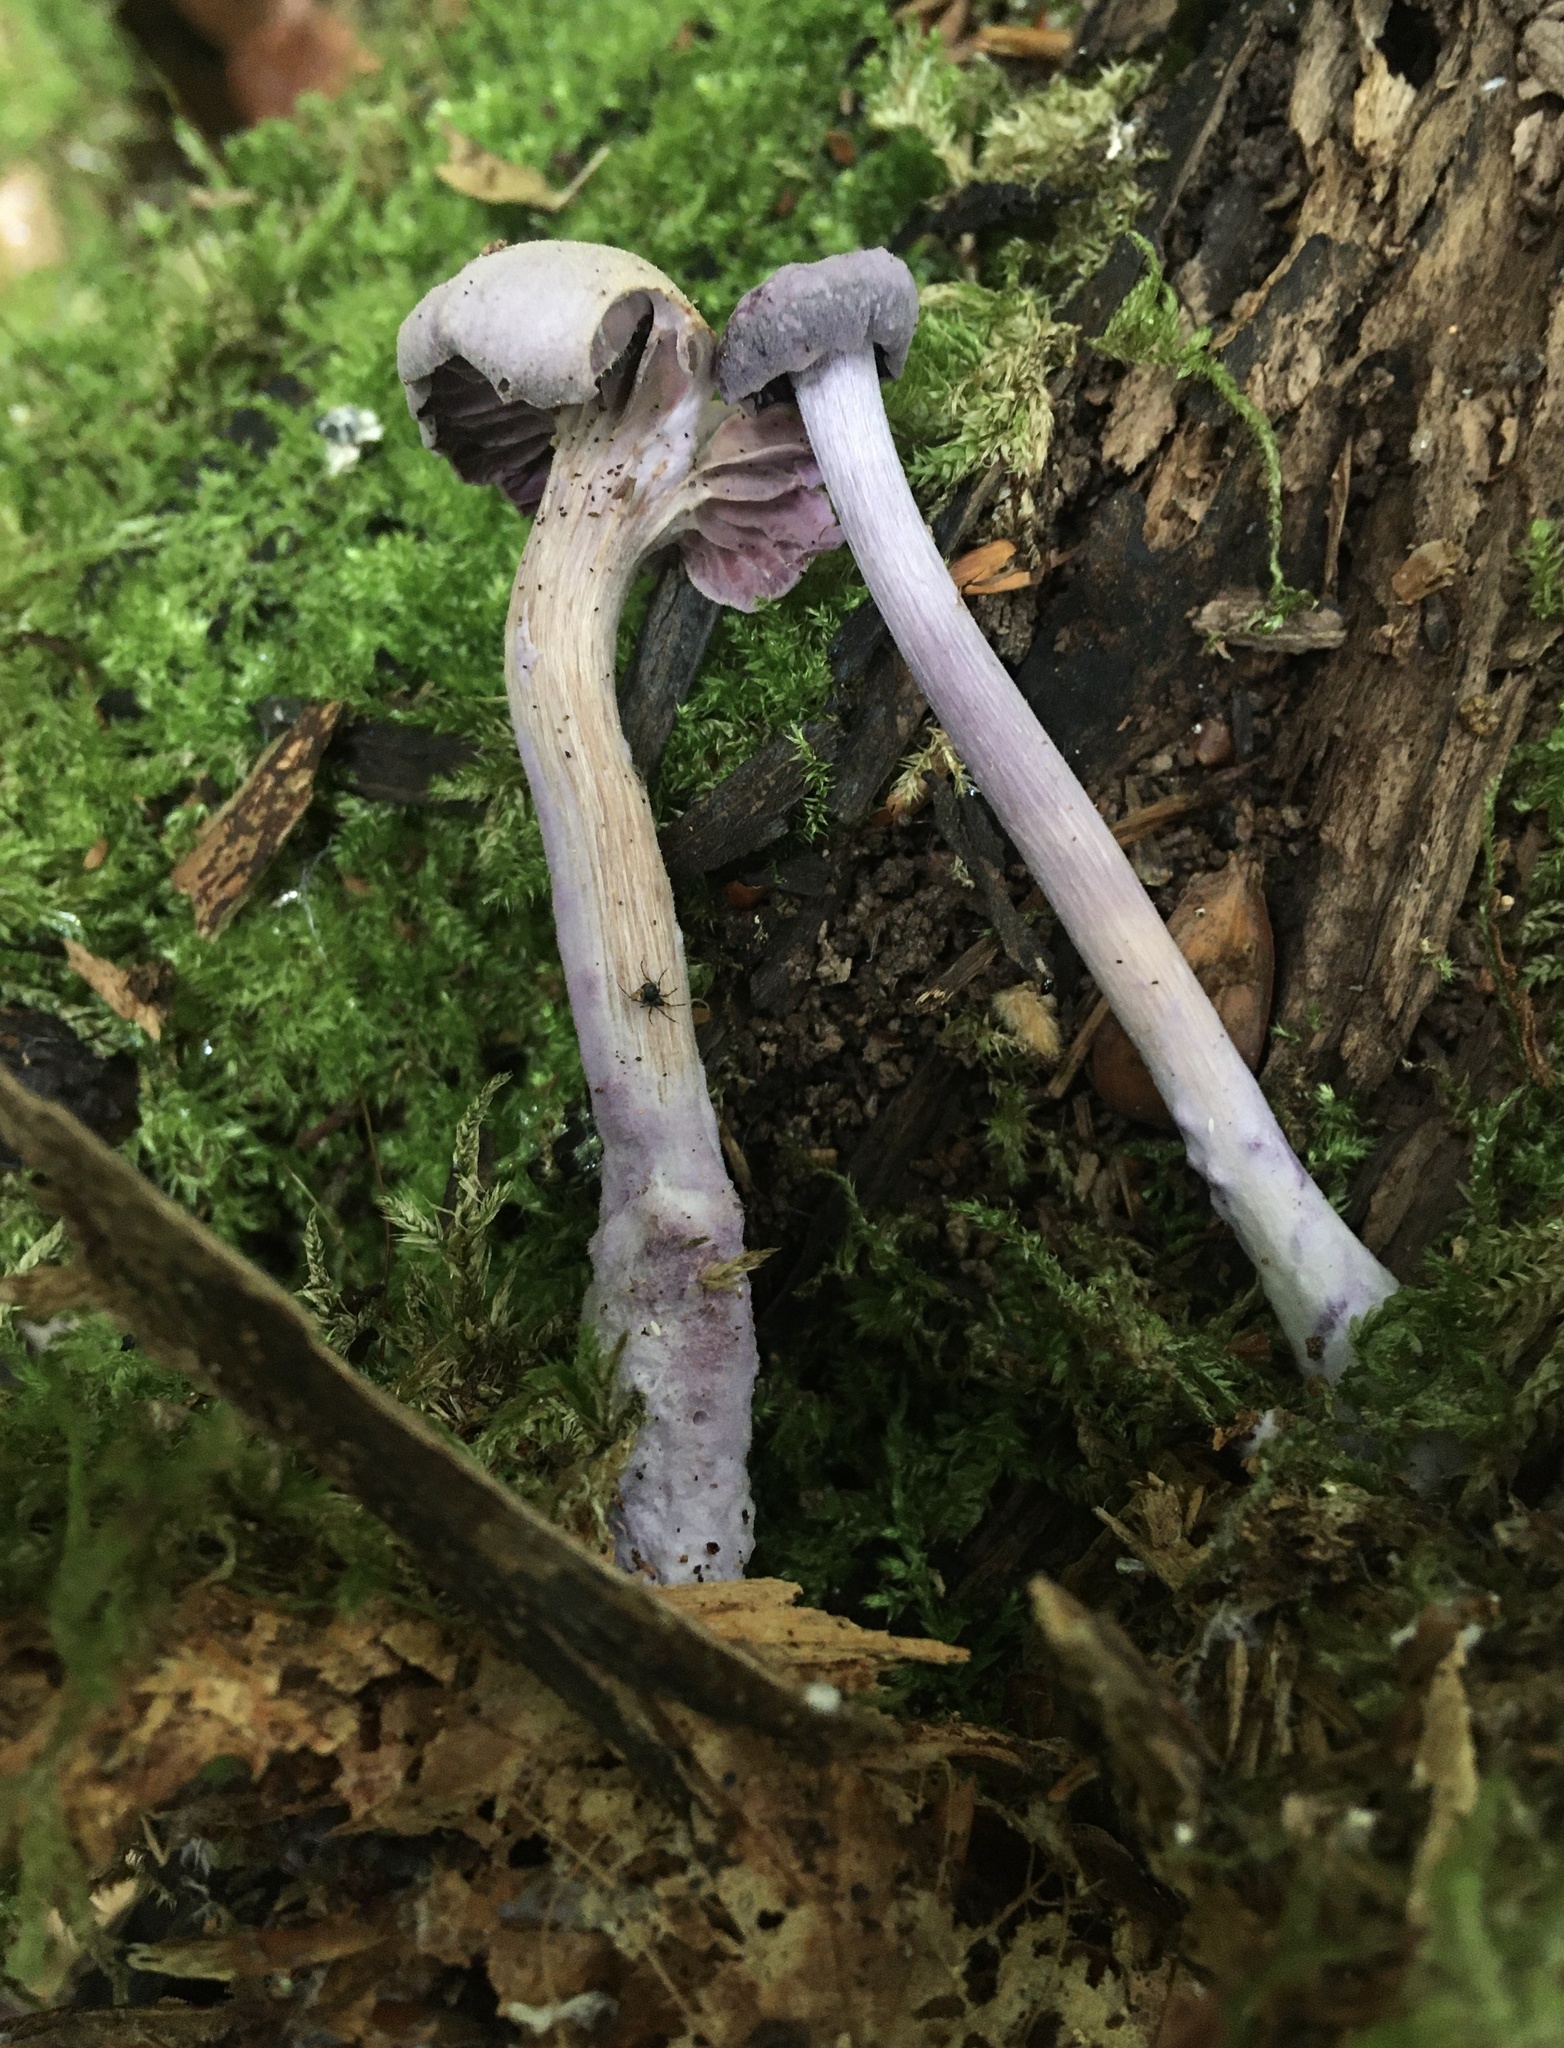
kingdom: Fungi
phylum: Basidiomycota
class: Agaricomycetes
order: Agaricales
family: Hydnangiaceae
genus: Laccaria
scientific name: Laccaria amethystina
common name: Amethyst deceiver
